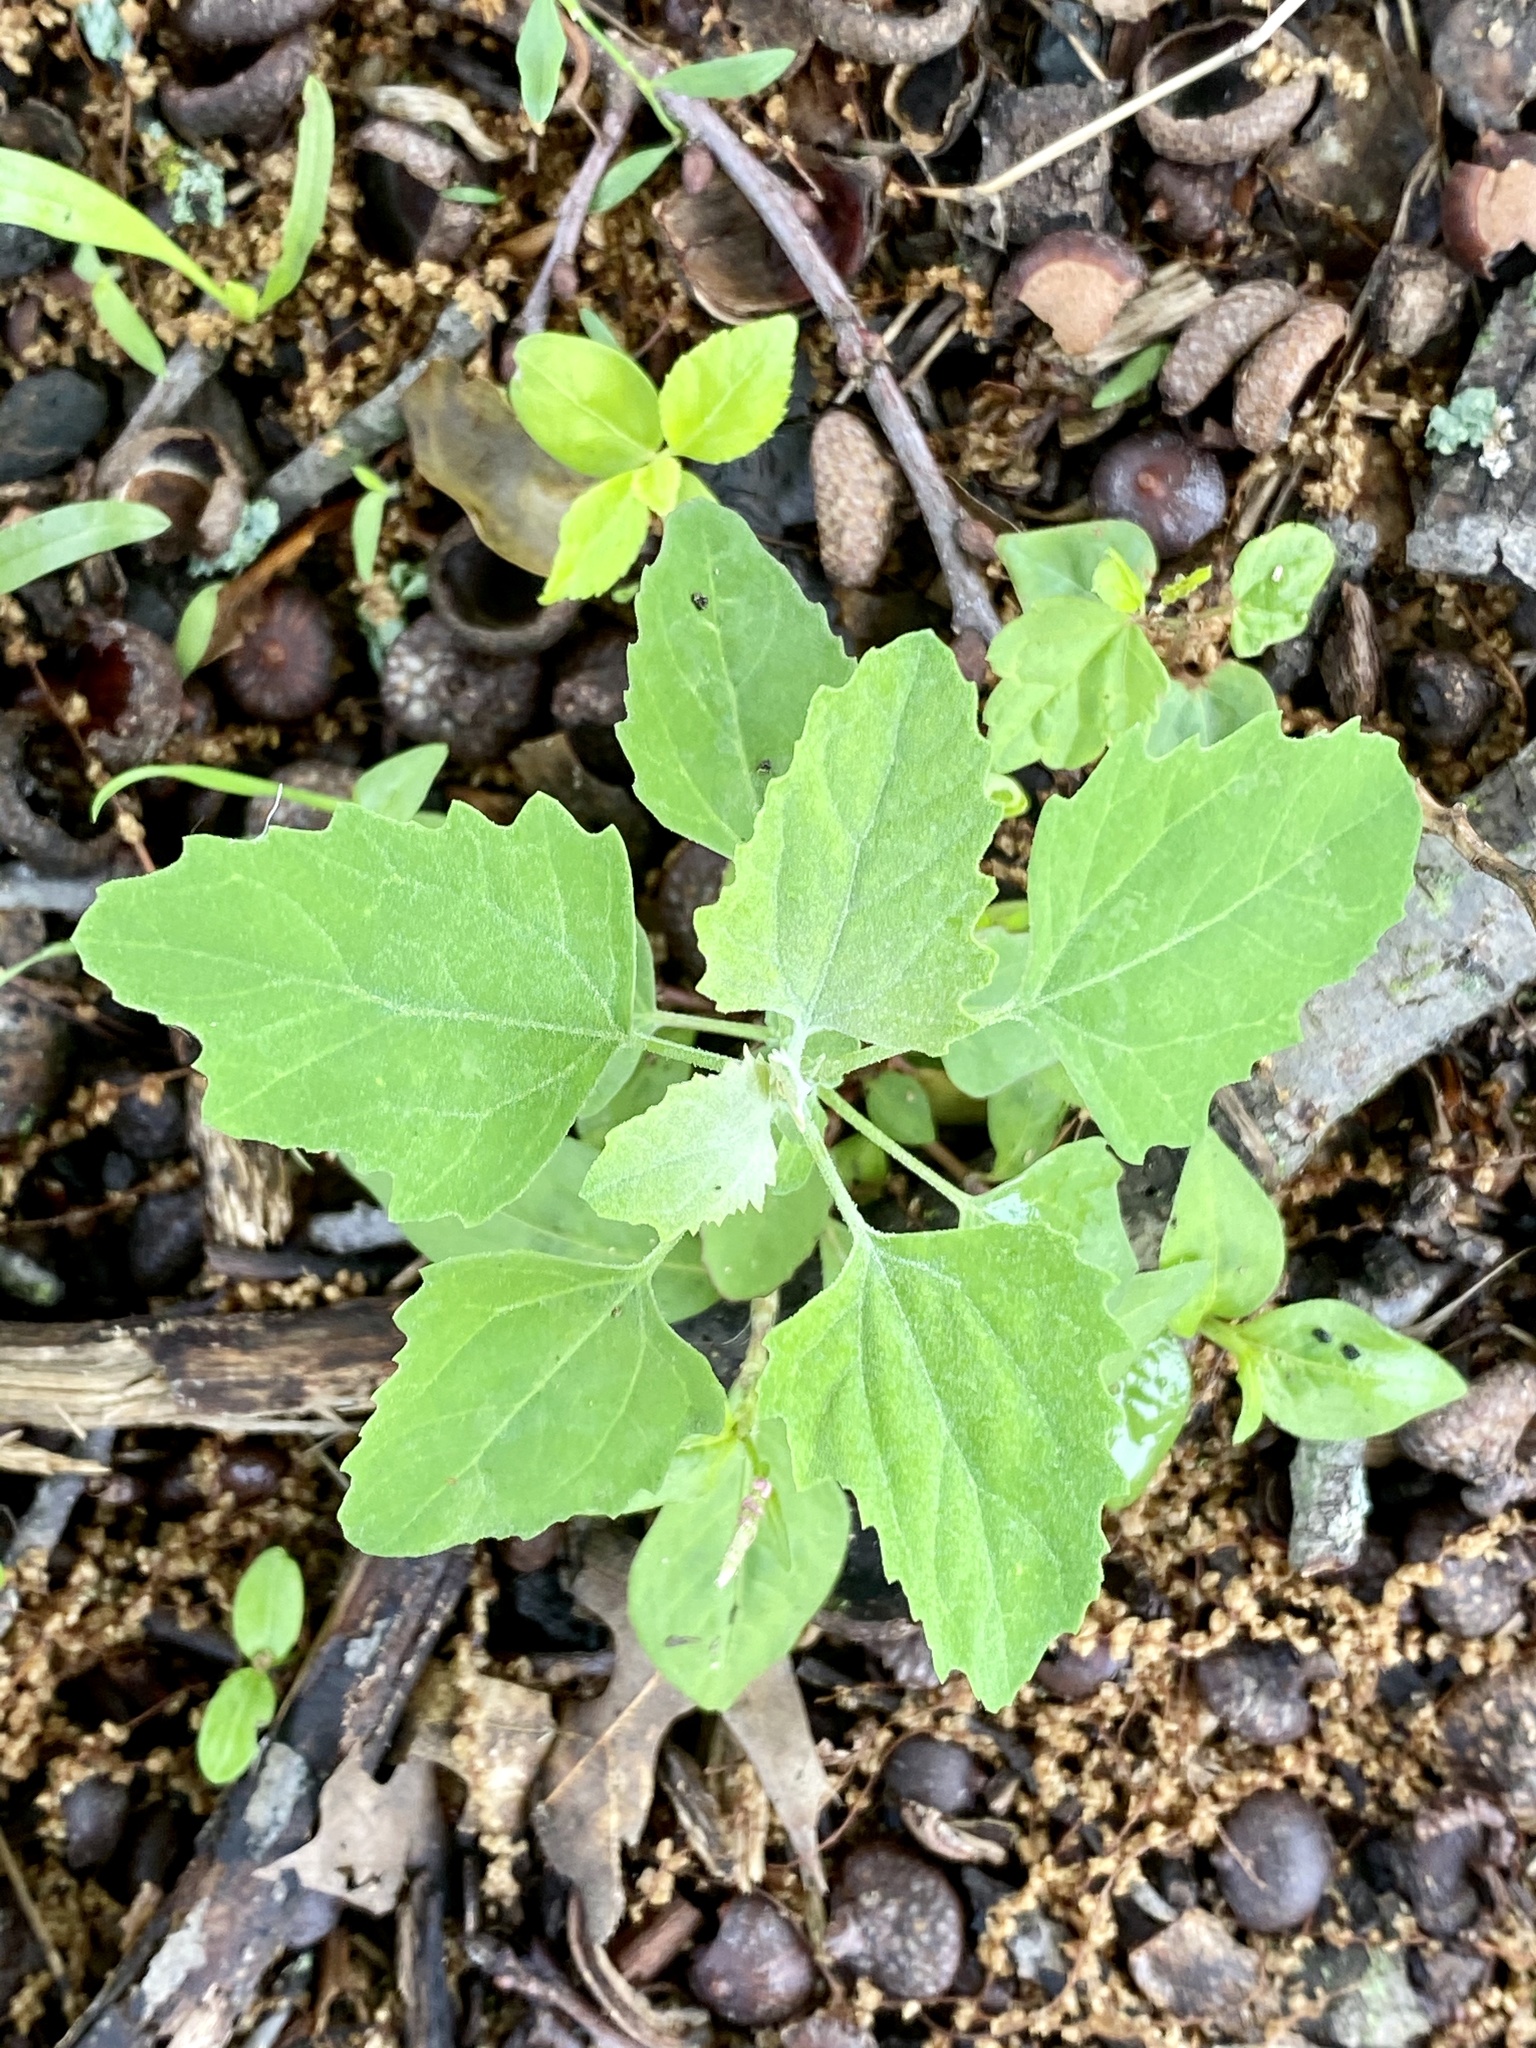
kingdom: Plantae
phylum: Tracheophyta
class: Magnoliopsida
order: Caryophyllales
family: Amaranthaceae
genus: Chenopodium
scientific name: Chenopodium album
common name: Fat-hen
